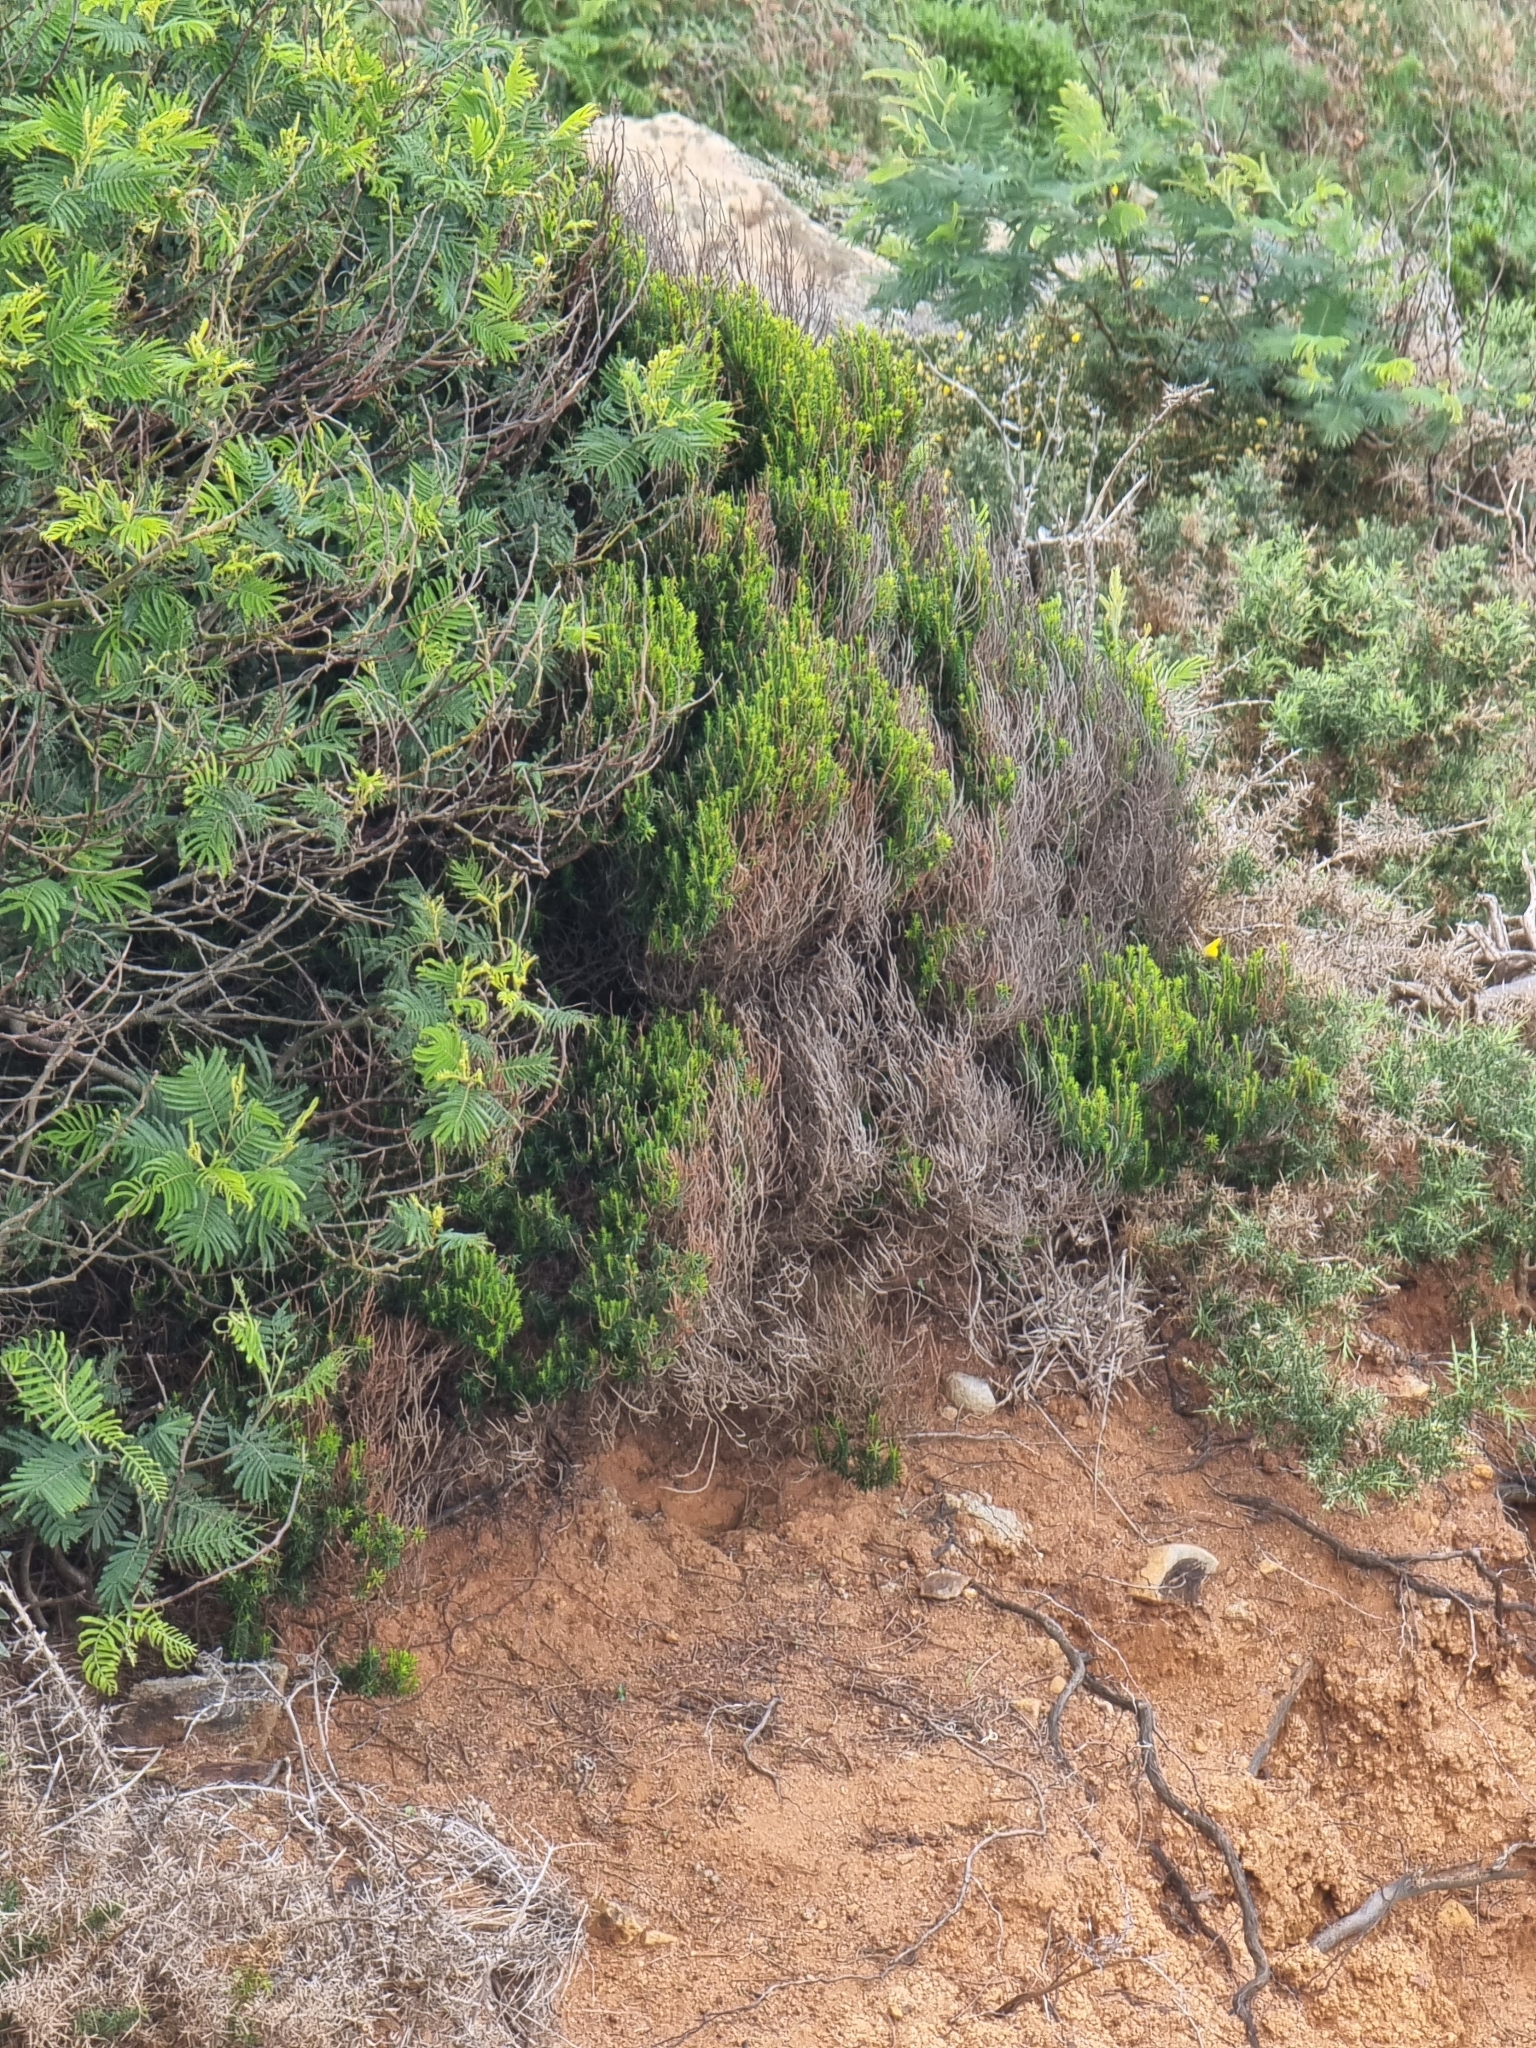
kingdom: Plantae
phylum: Tracheophyta
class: Magnoliopsida
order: Ericales
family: Ericaceae
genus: Erica
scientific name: Erica platycodon
